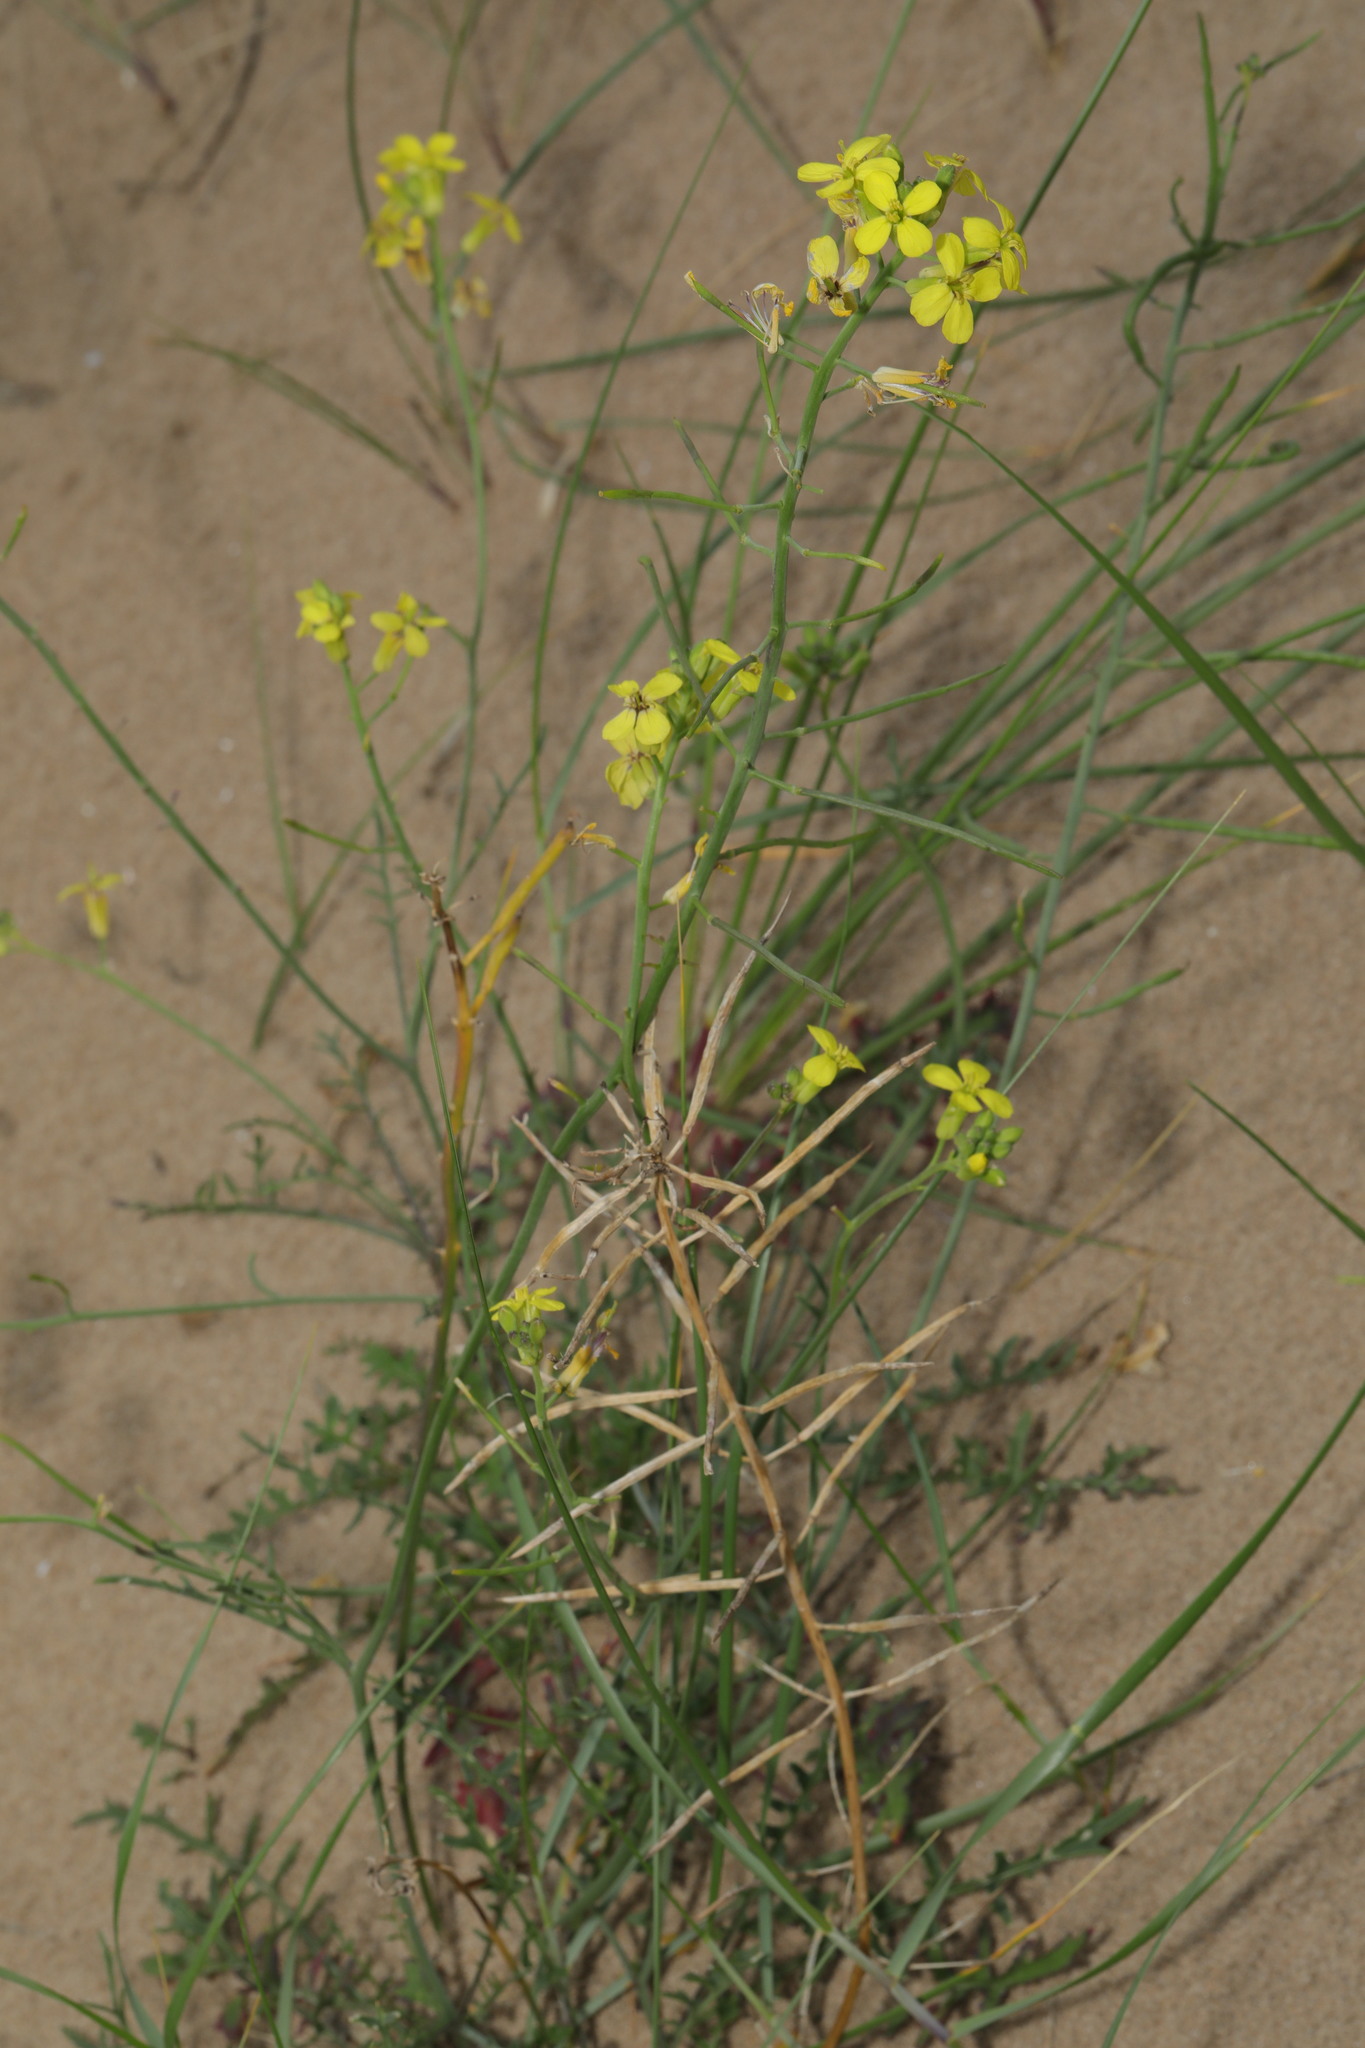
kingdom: Plantae
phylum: Tracheophyta
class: Magnoliopsida
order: Brassicales
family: Brassicaceae
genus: Sisymbrium
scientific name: Sisymbrium altissimum
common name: Tall rocket
